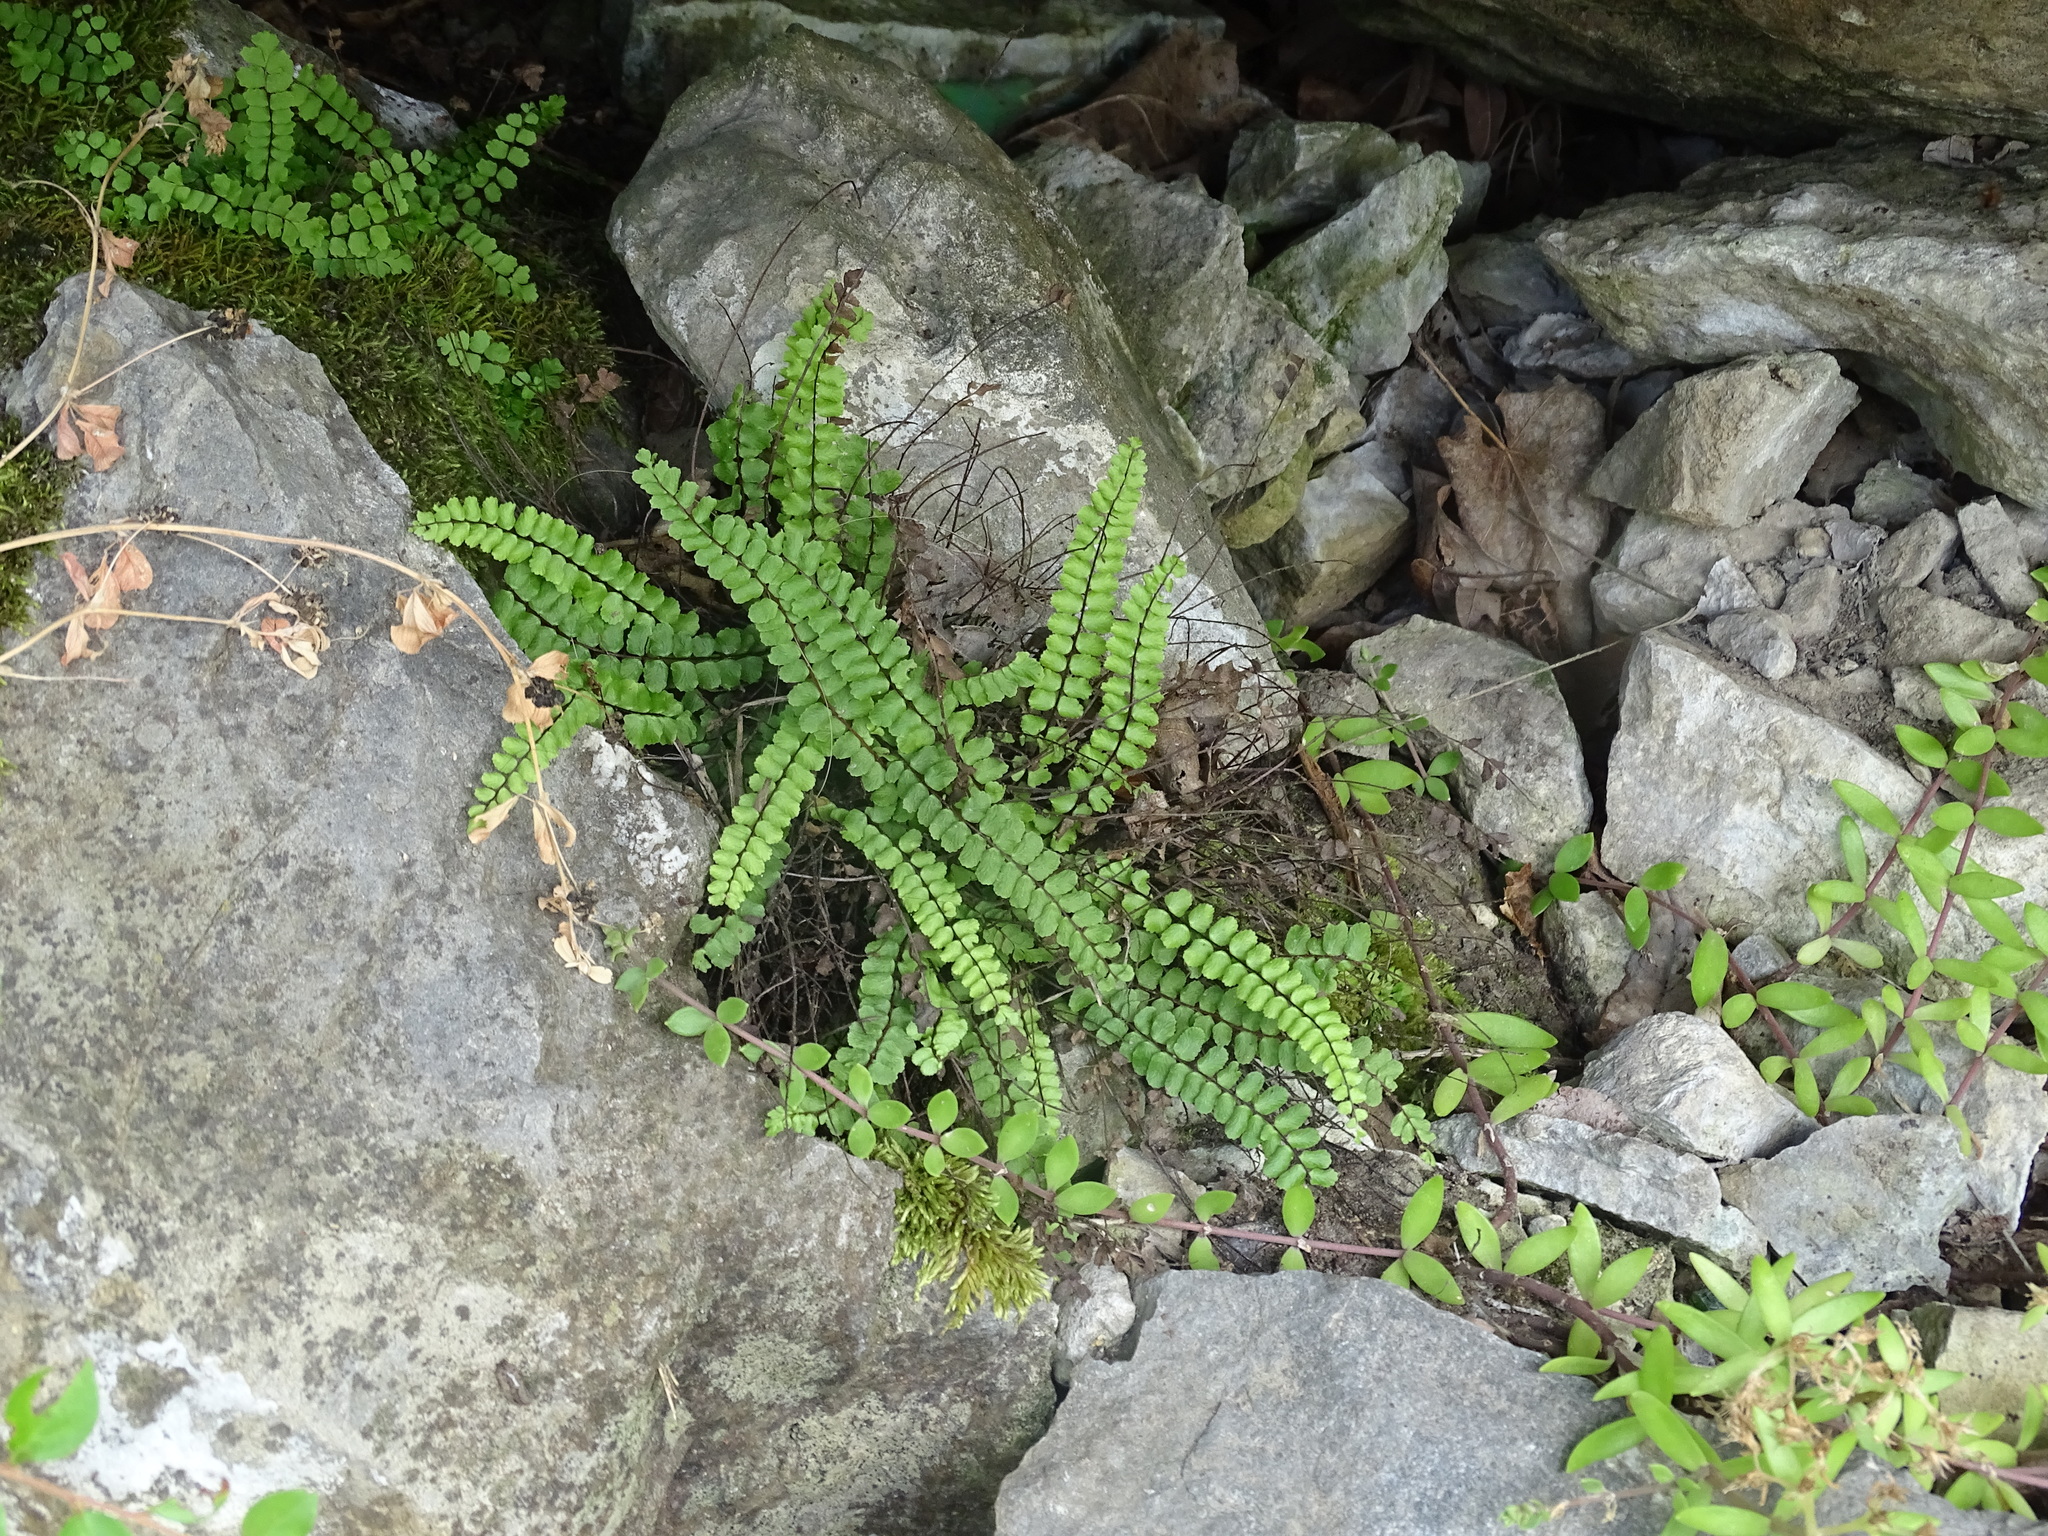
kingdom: Plantae
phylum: Tracheophyta
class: Polypodiopsida
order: Polypodiales
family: Aspleniaceae
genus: Asplenium
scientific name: Asplenium trichomanes
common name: Maidenhair spleenwort
